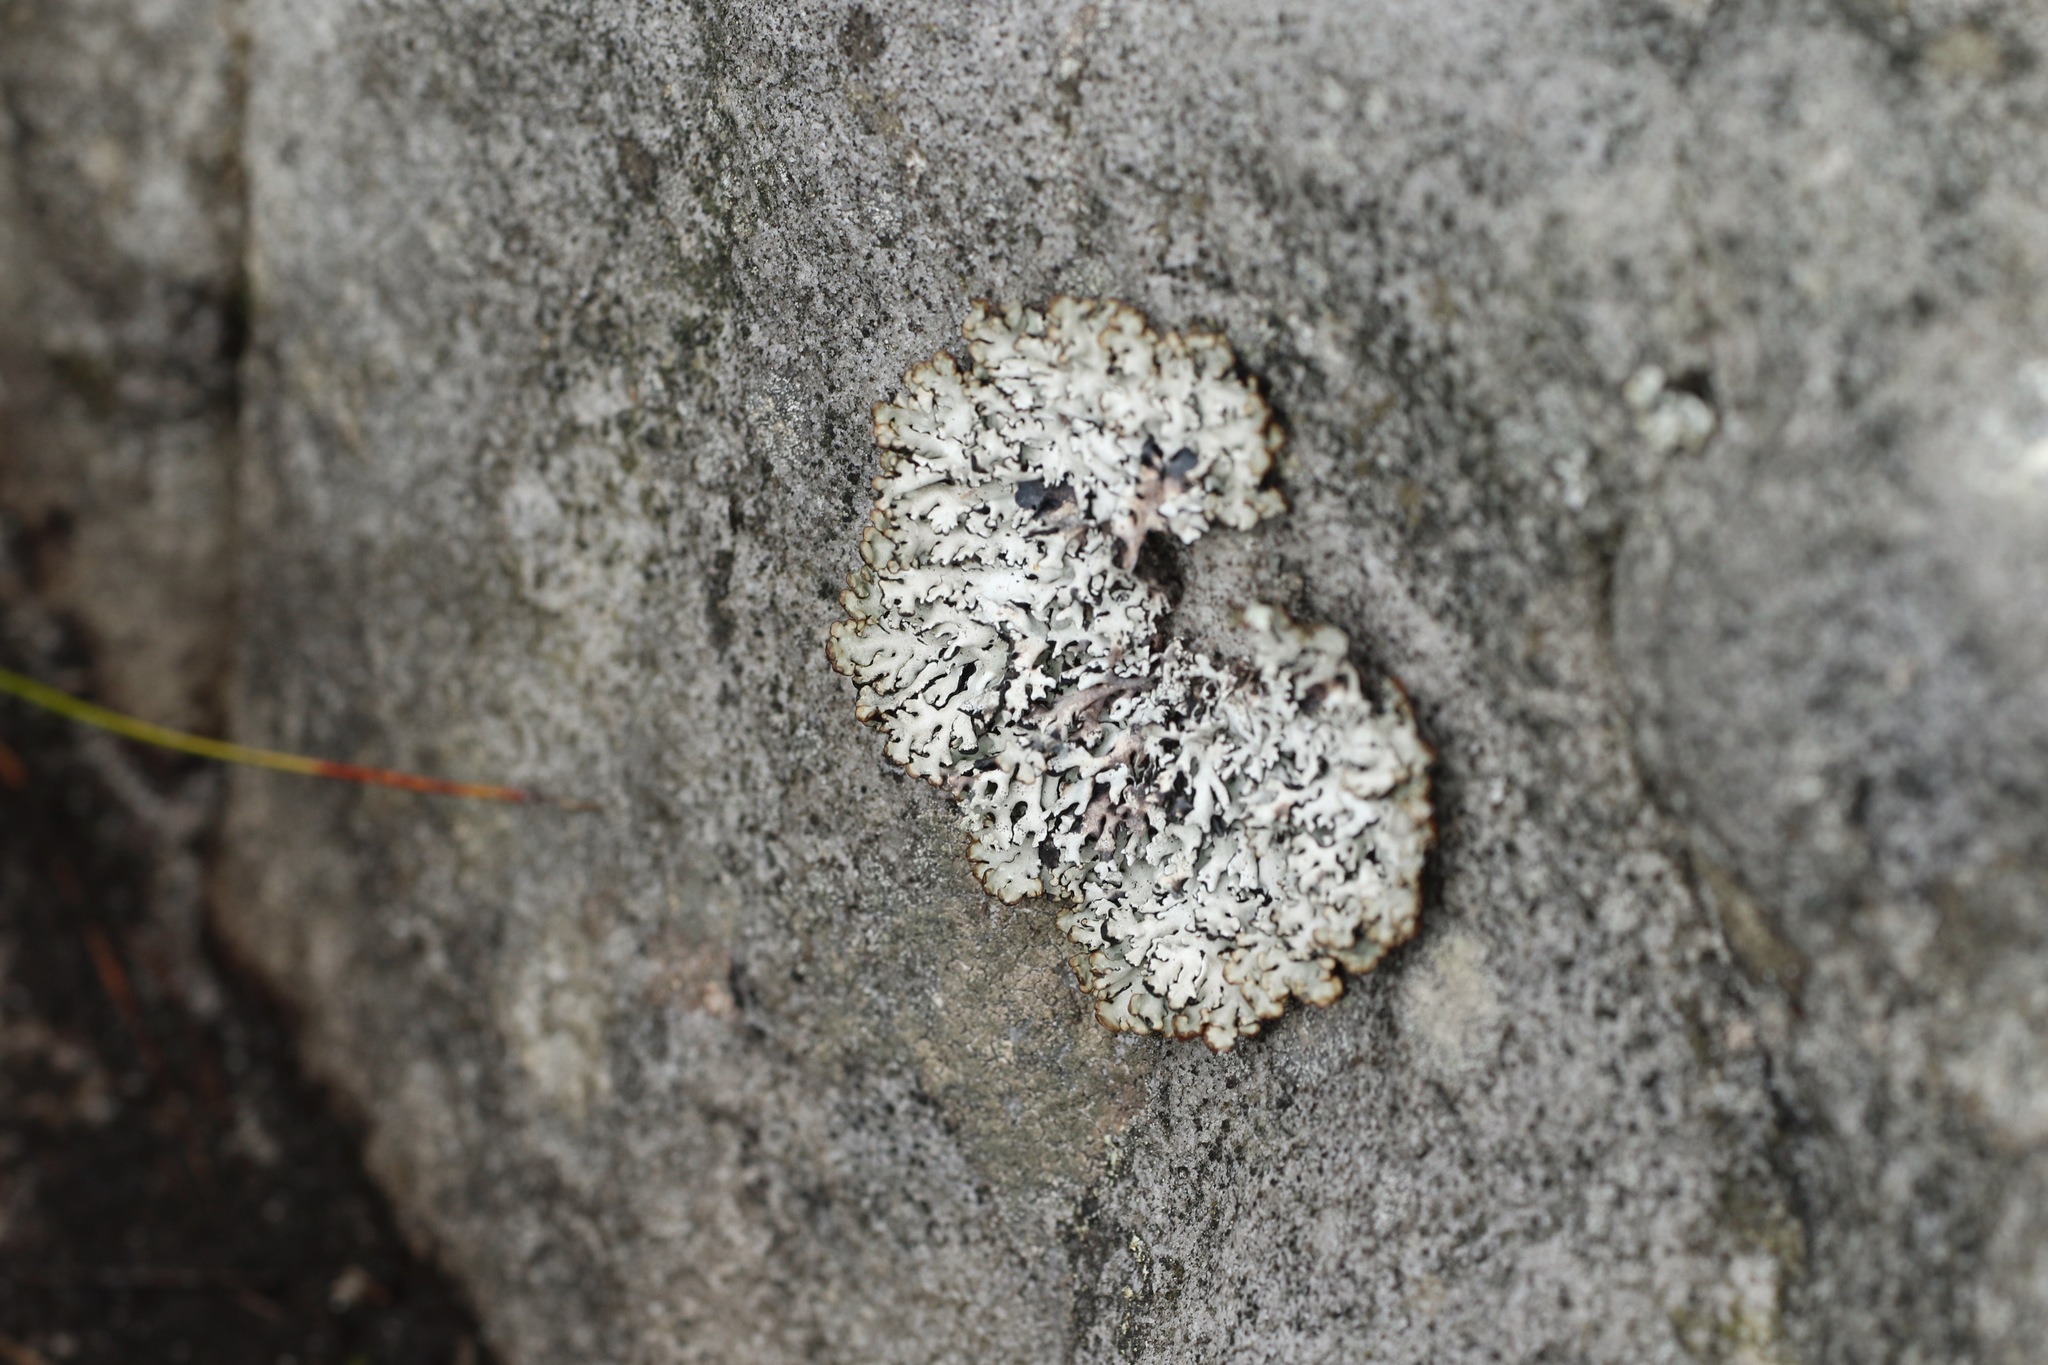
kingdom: Fungi
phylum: Ascomycota
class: Lecanoromycetes
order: Lecanorales
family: Parmeliaceae
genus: Hypogymnia
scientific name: Hypogymnia physodes
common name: Dark crottle
